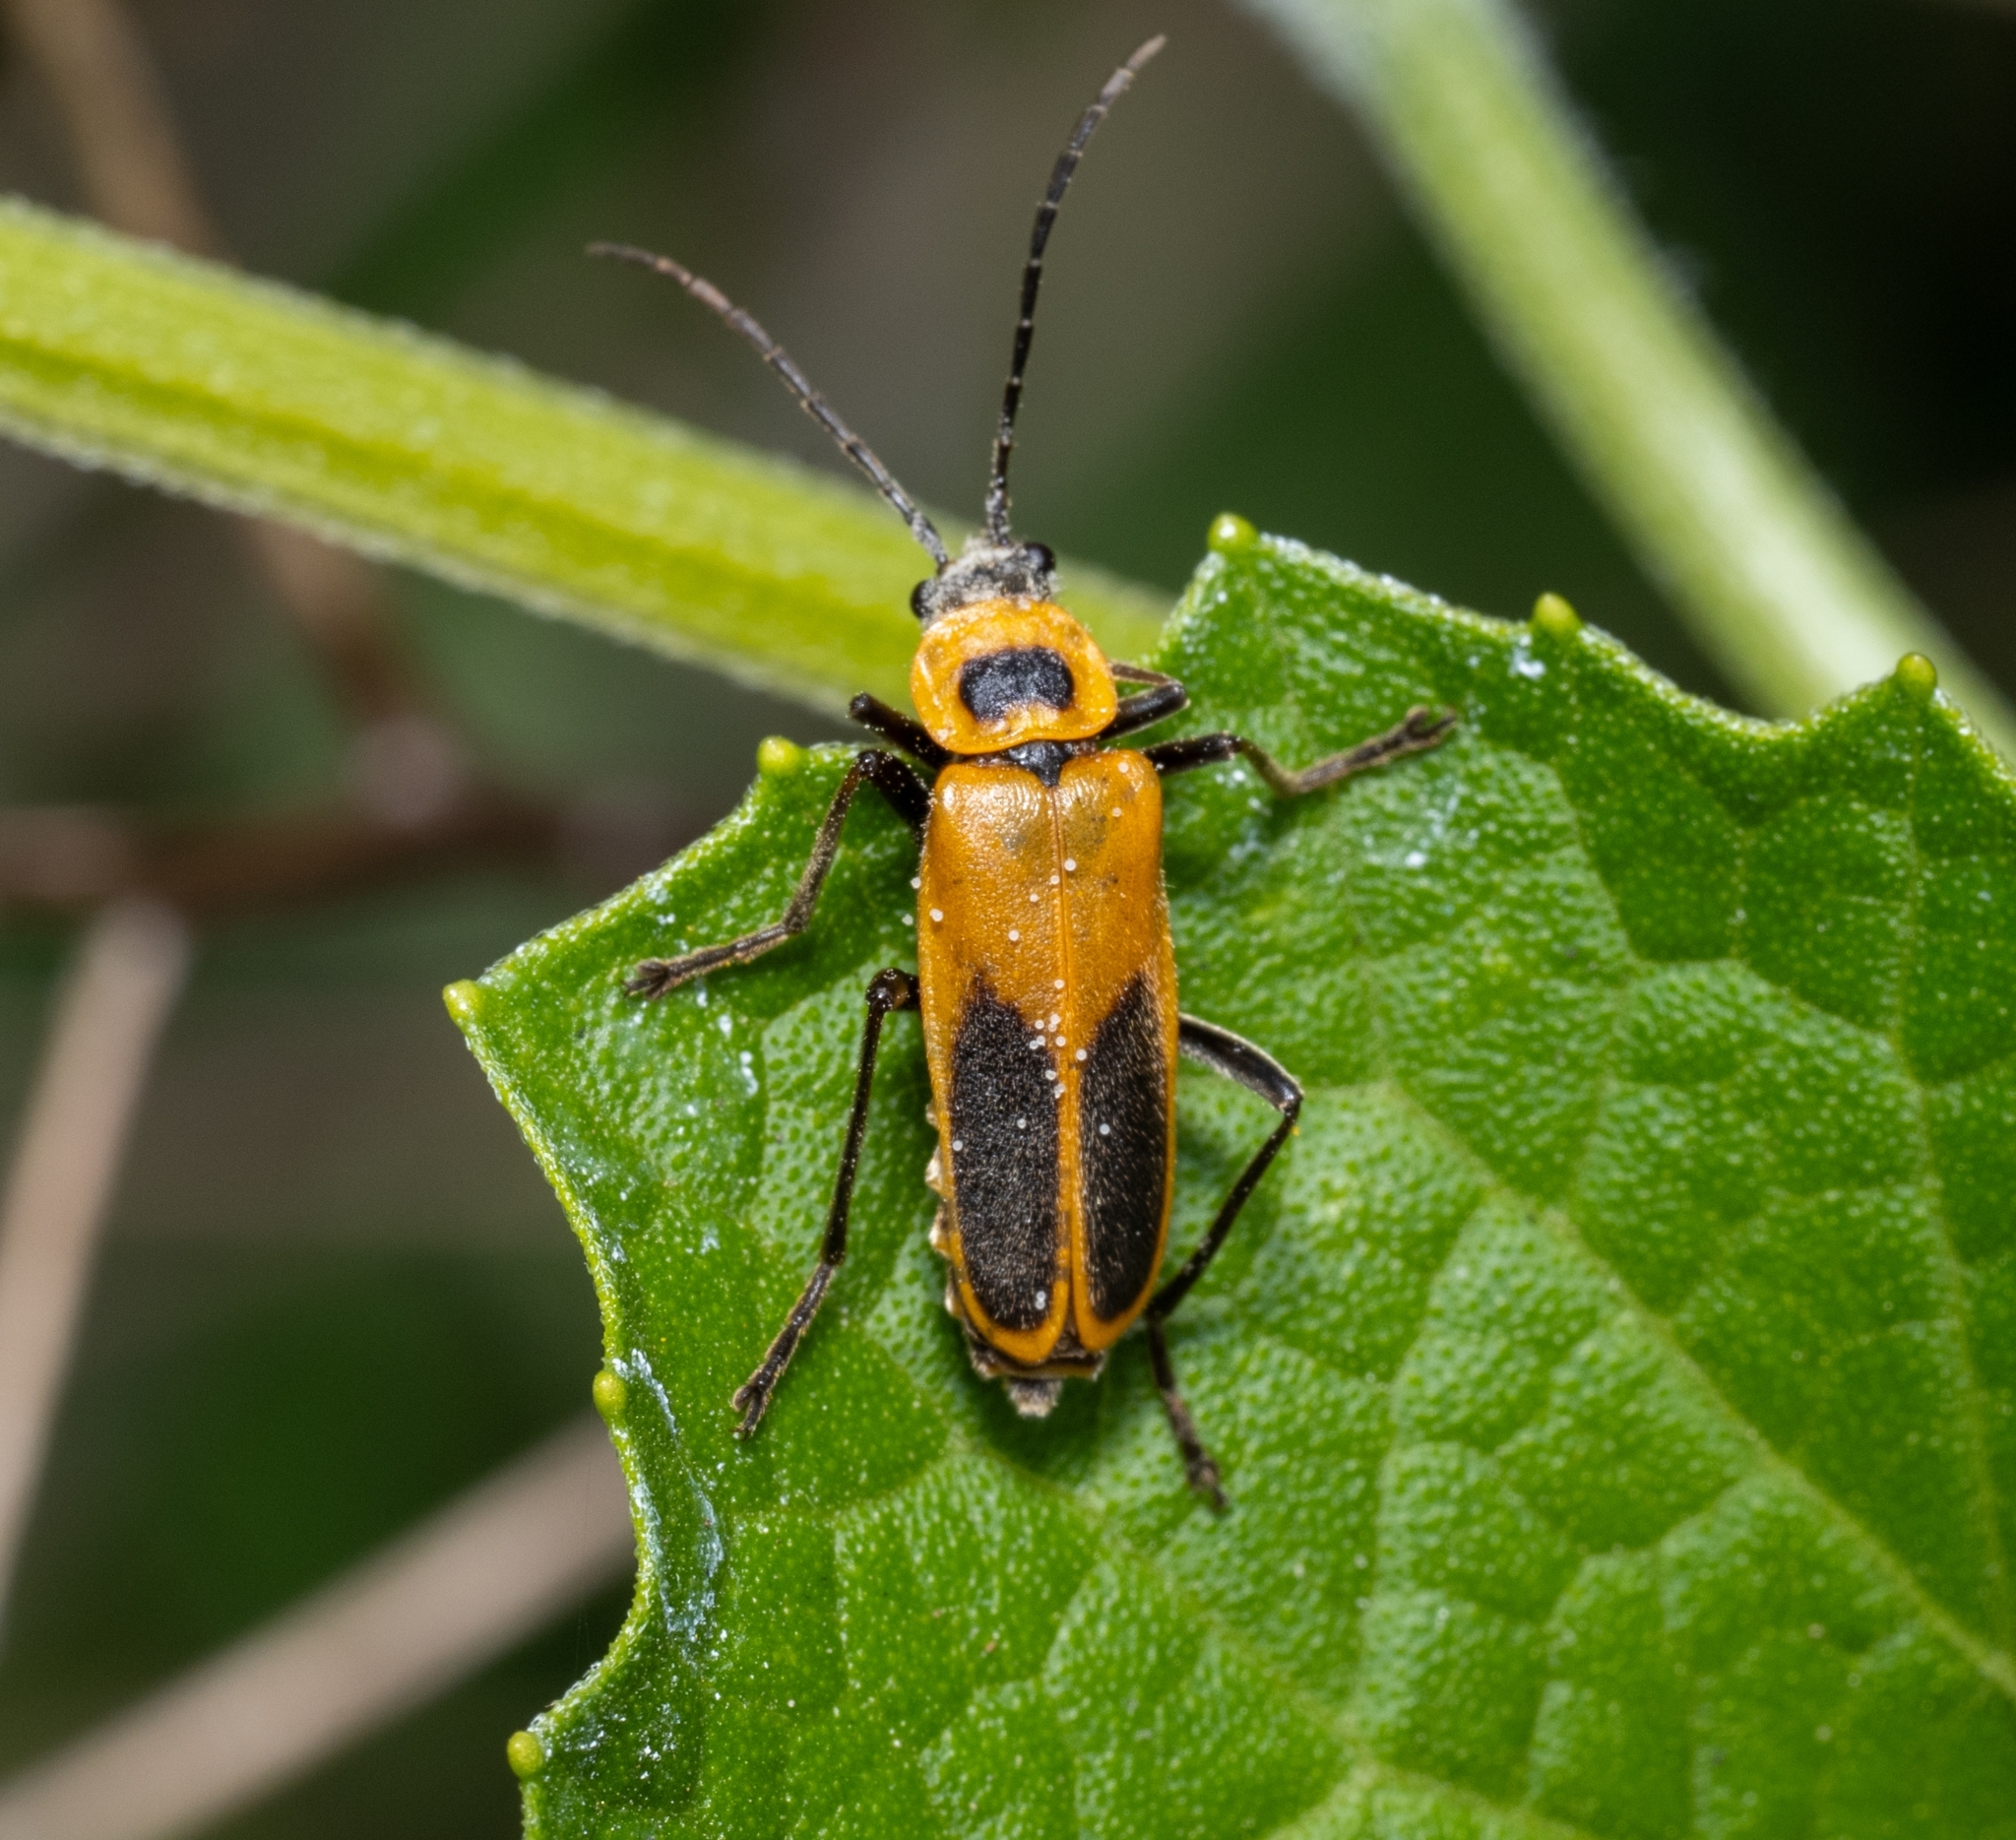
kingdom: Animalia
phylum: Arthropoda
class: Insecta
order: Coleoptera
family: Cantharidae
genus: Chauliognathus
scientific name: Chauliognathus pensylvanicus
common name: Goldenrod soldier beetle
